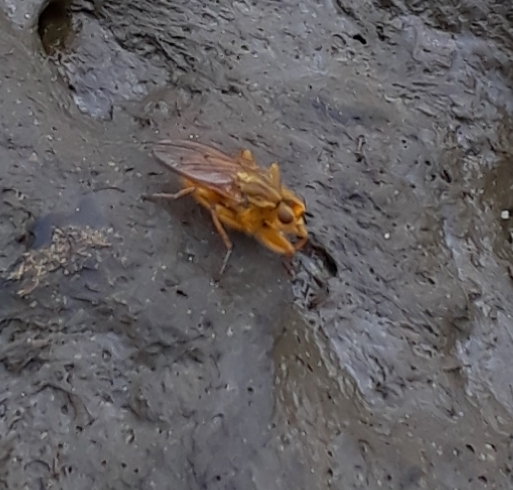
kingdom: Animalia
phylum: Arthropoda
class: Insecta
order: Diptera
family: Scathophagidae
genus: Scathophaga
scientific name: Scathophaga stercoraria
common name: Yellow dung fly
